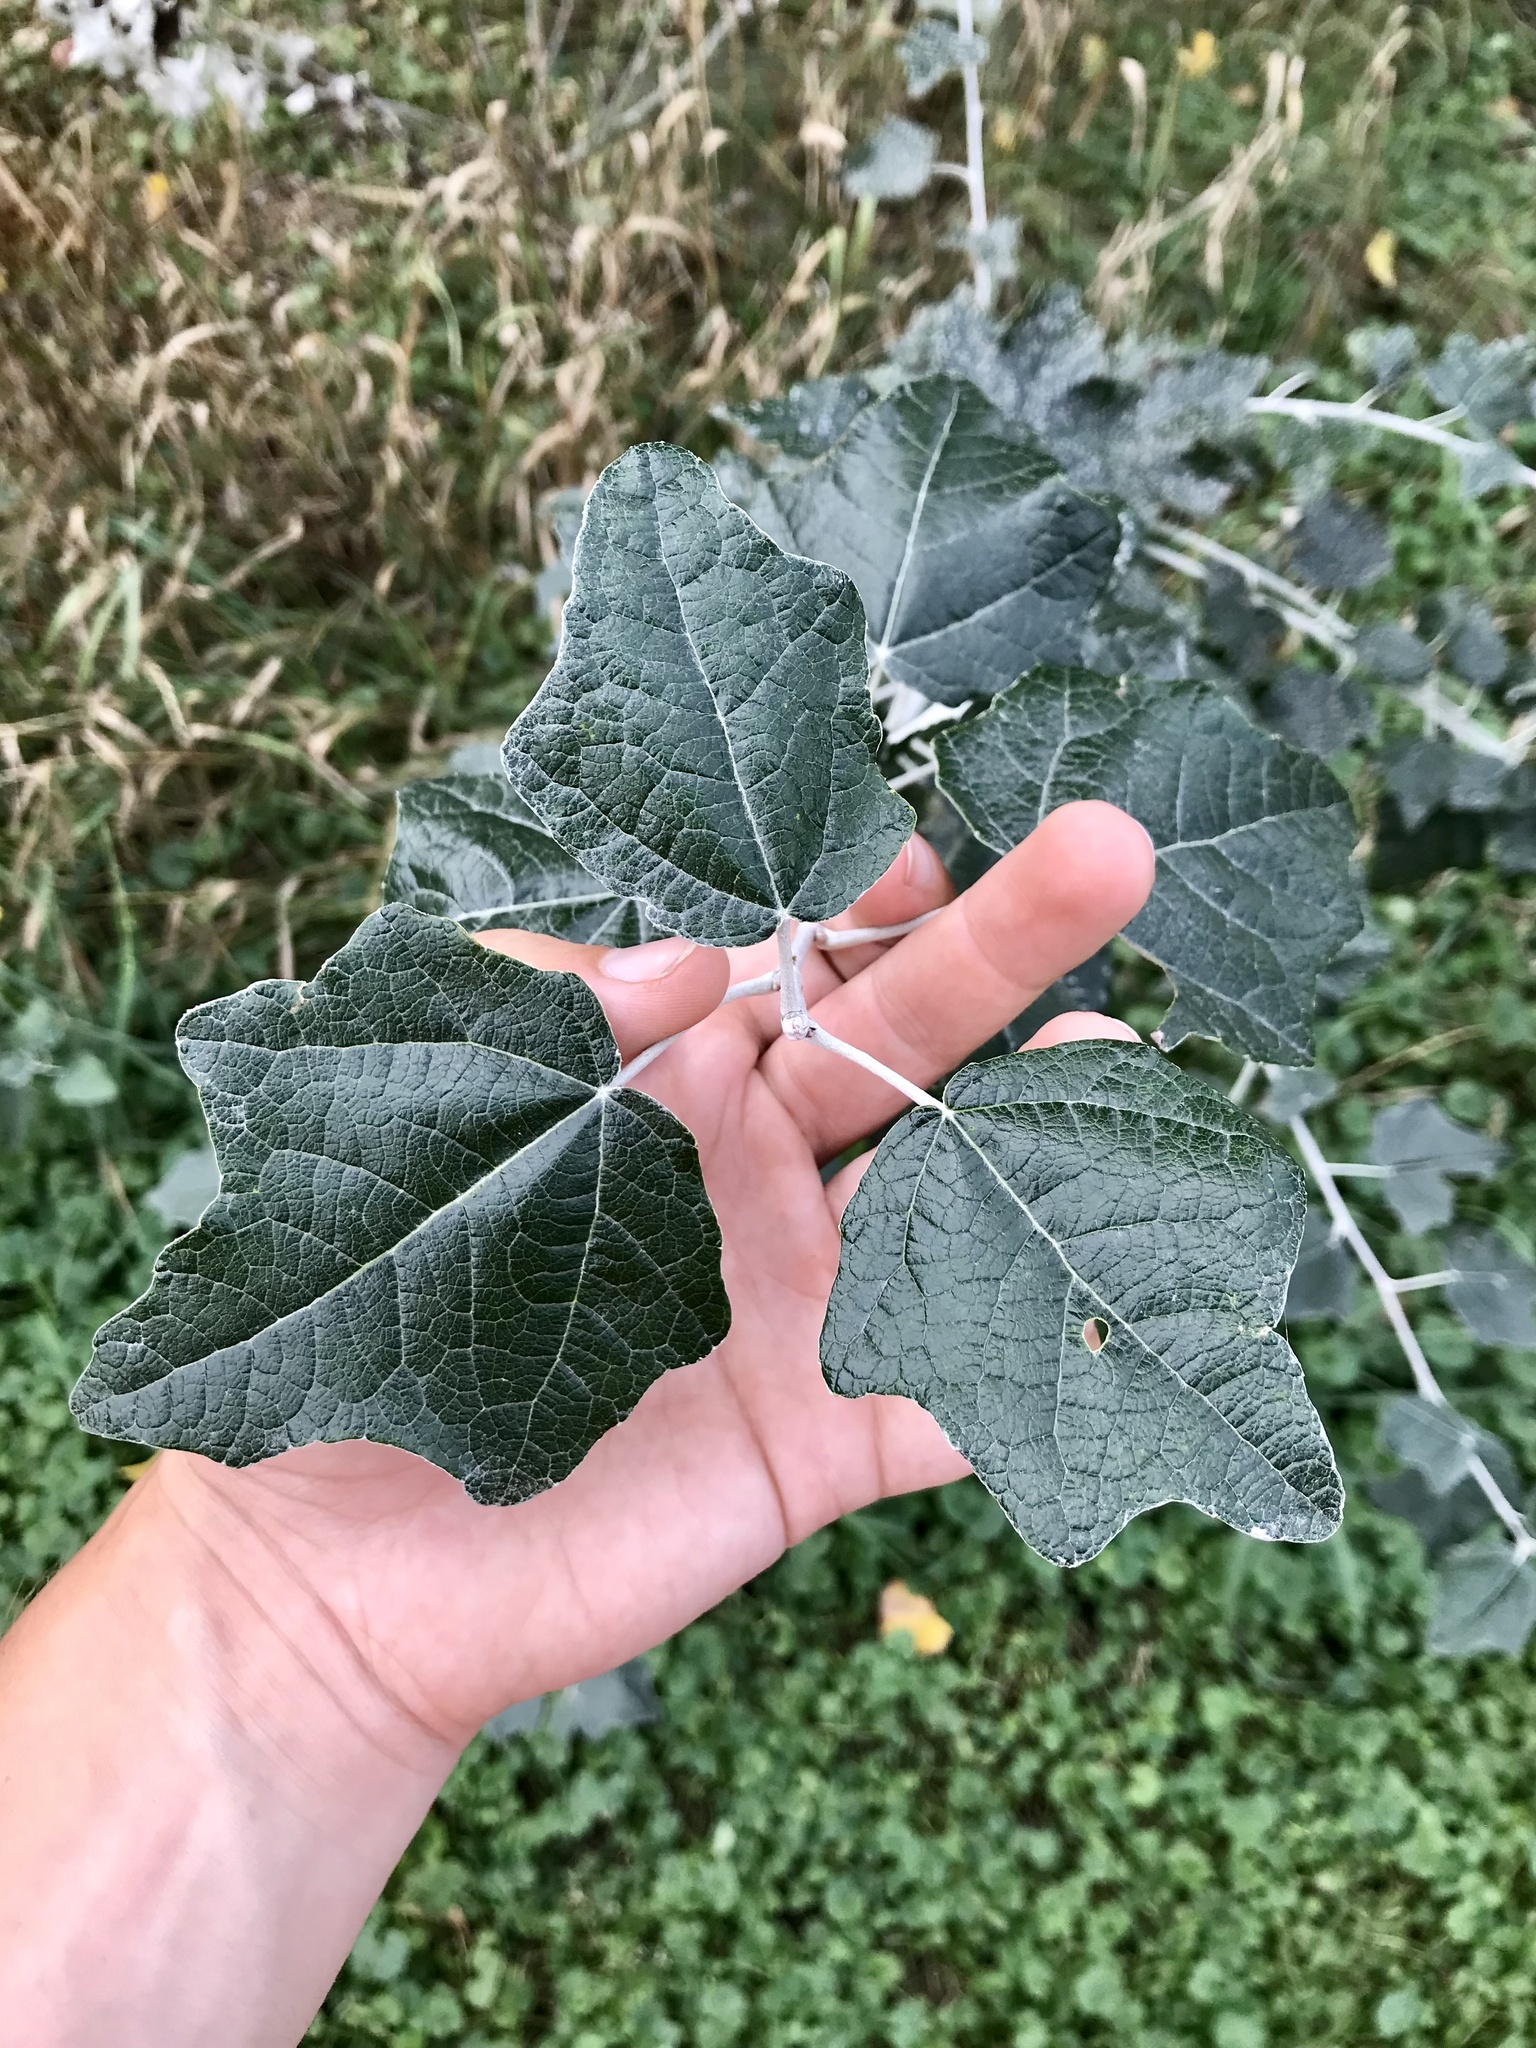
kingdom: Plantae
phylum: Tracheophyta
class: Magnoliopsida
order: Malpighiales
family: Salicaceae
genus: Populus
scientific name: Populus alba
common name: White poplar
